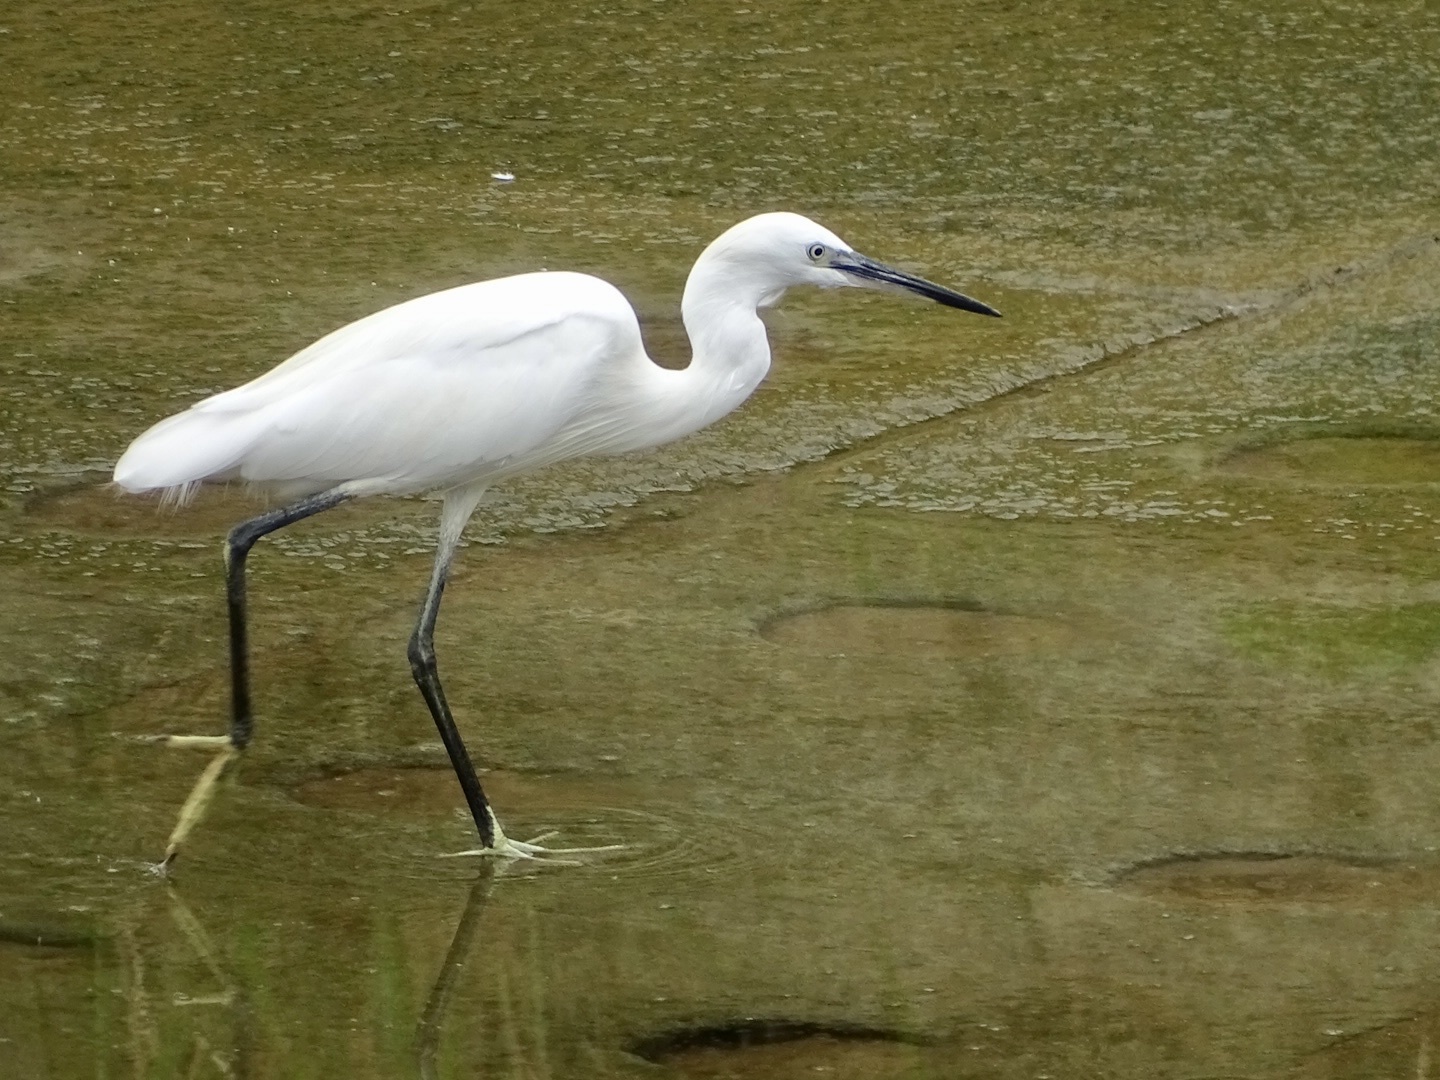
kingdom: Animalia
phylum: Chordata
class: Aves
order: Pelecaniformes
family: Ardeidae
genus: Egretta
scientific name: Egretta garzetta
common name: Little egret
